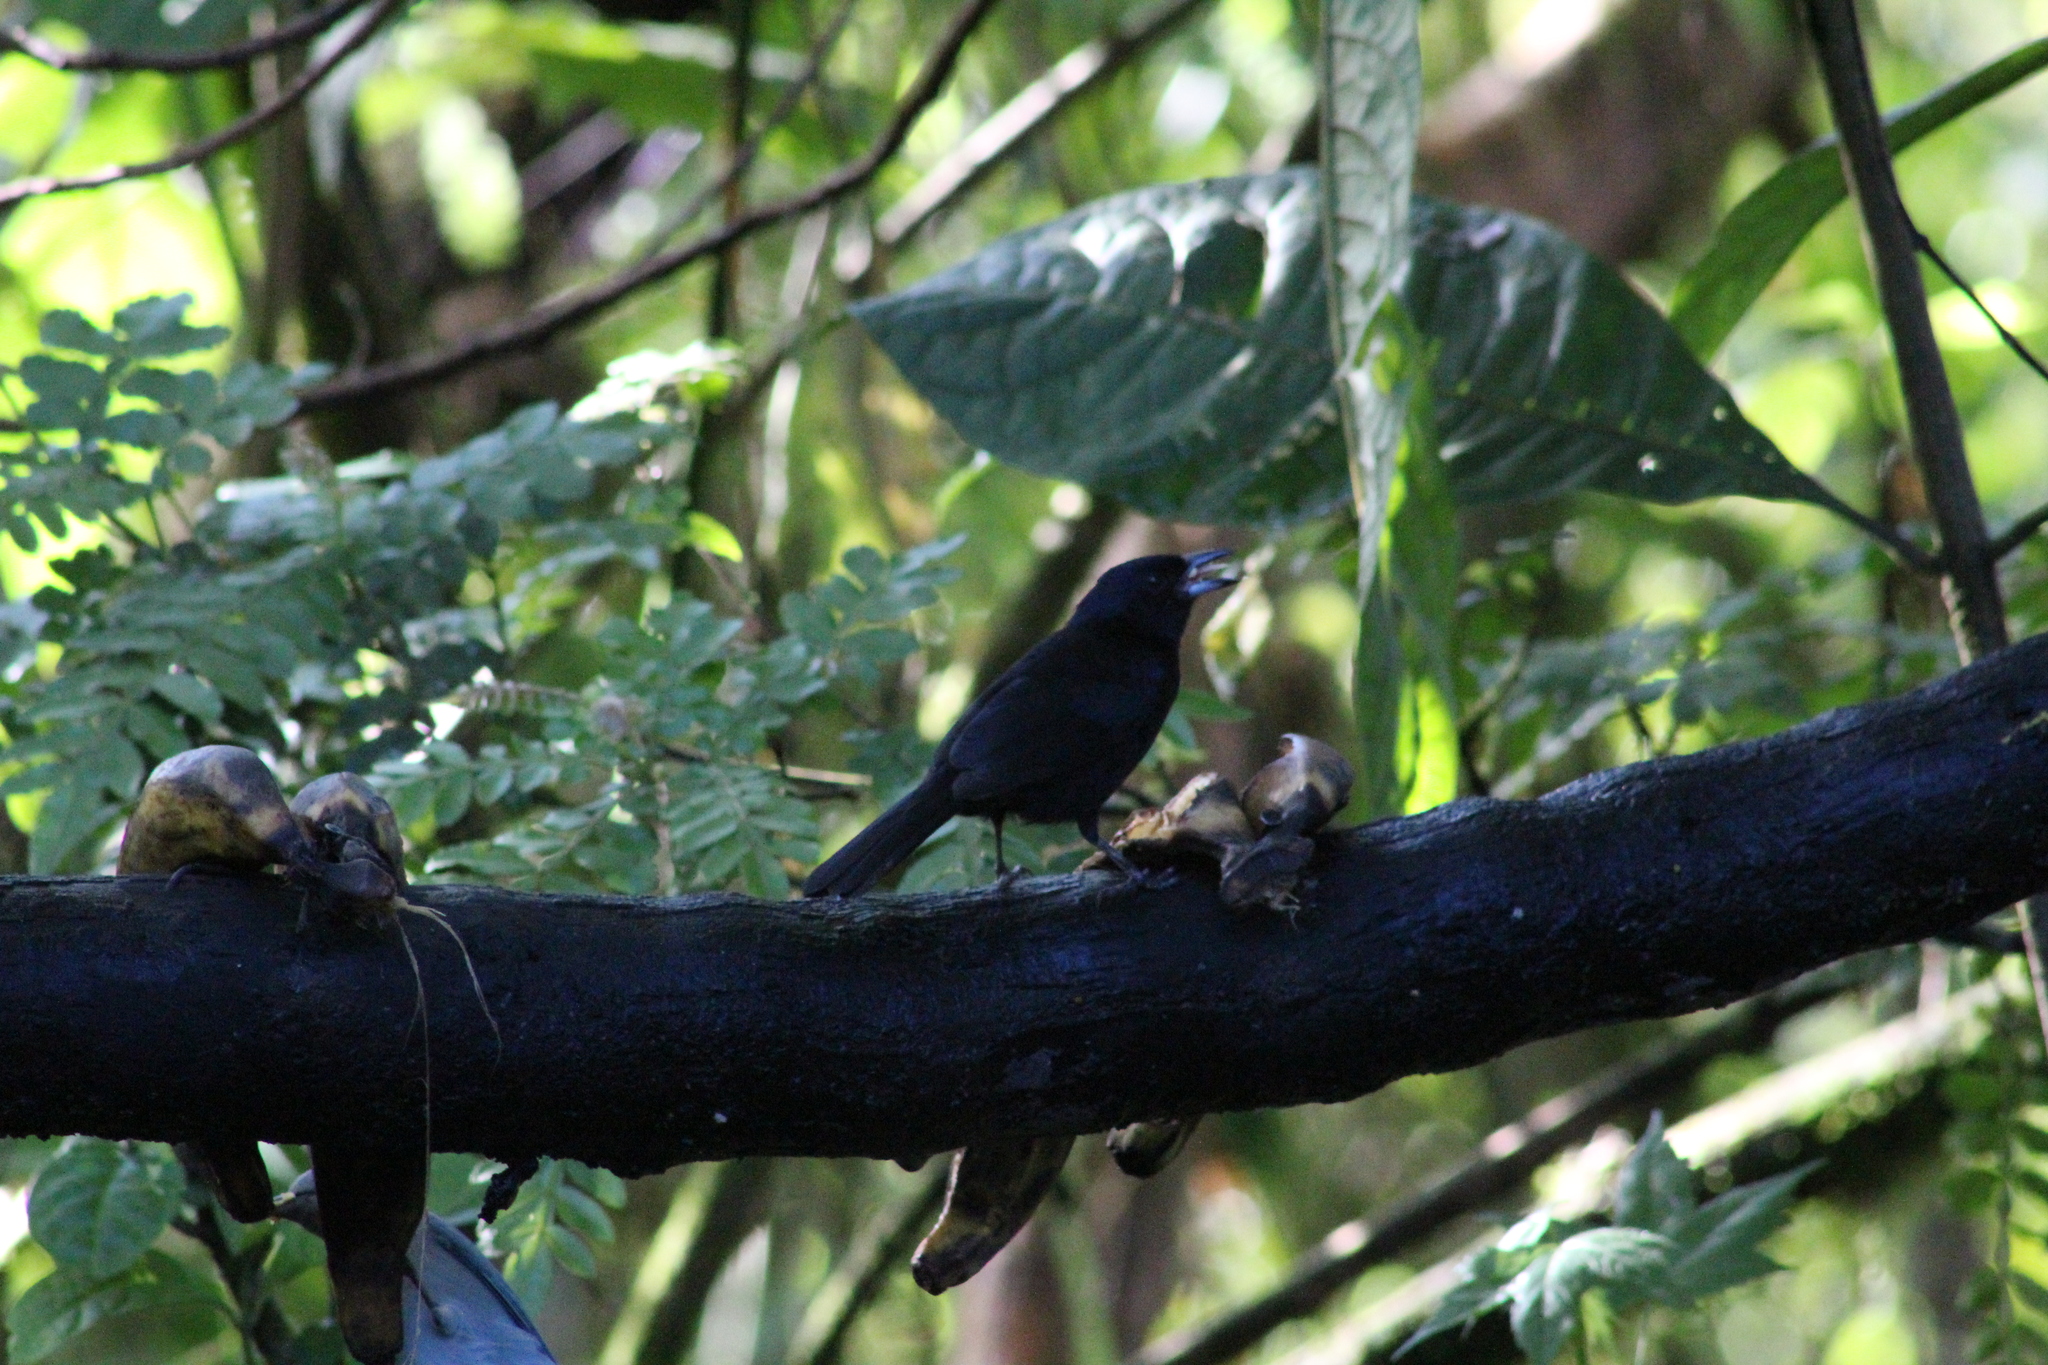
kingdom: Animalia
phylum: Chordata
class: Aves
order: Passeriformes
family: Thraupidae
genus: Tachyphonus
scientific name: Tachyphonus rufus
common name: White-lined tanager
